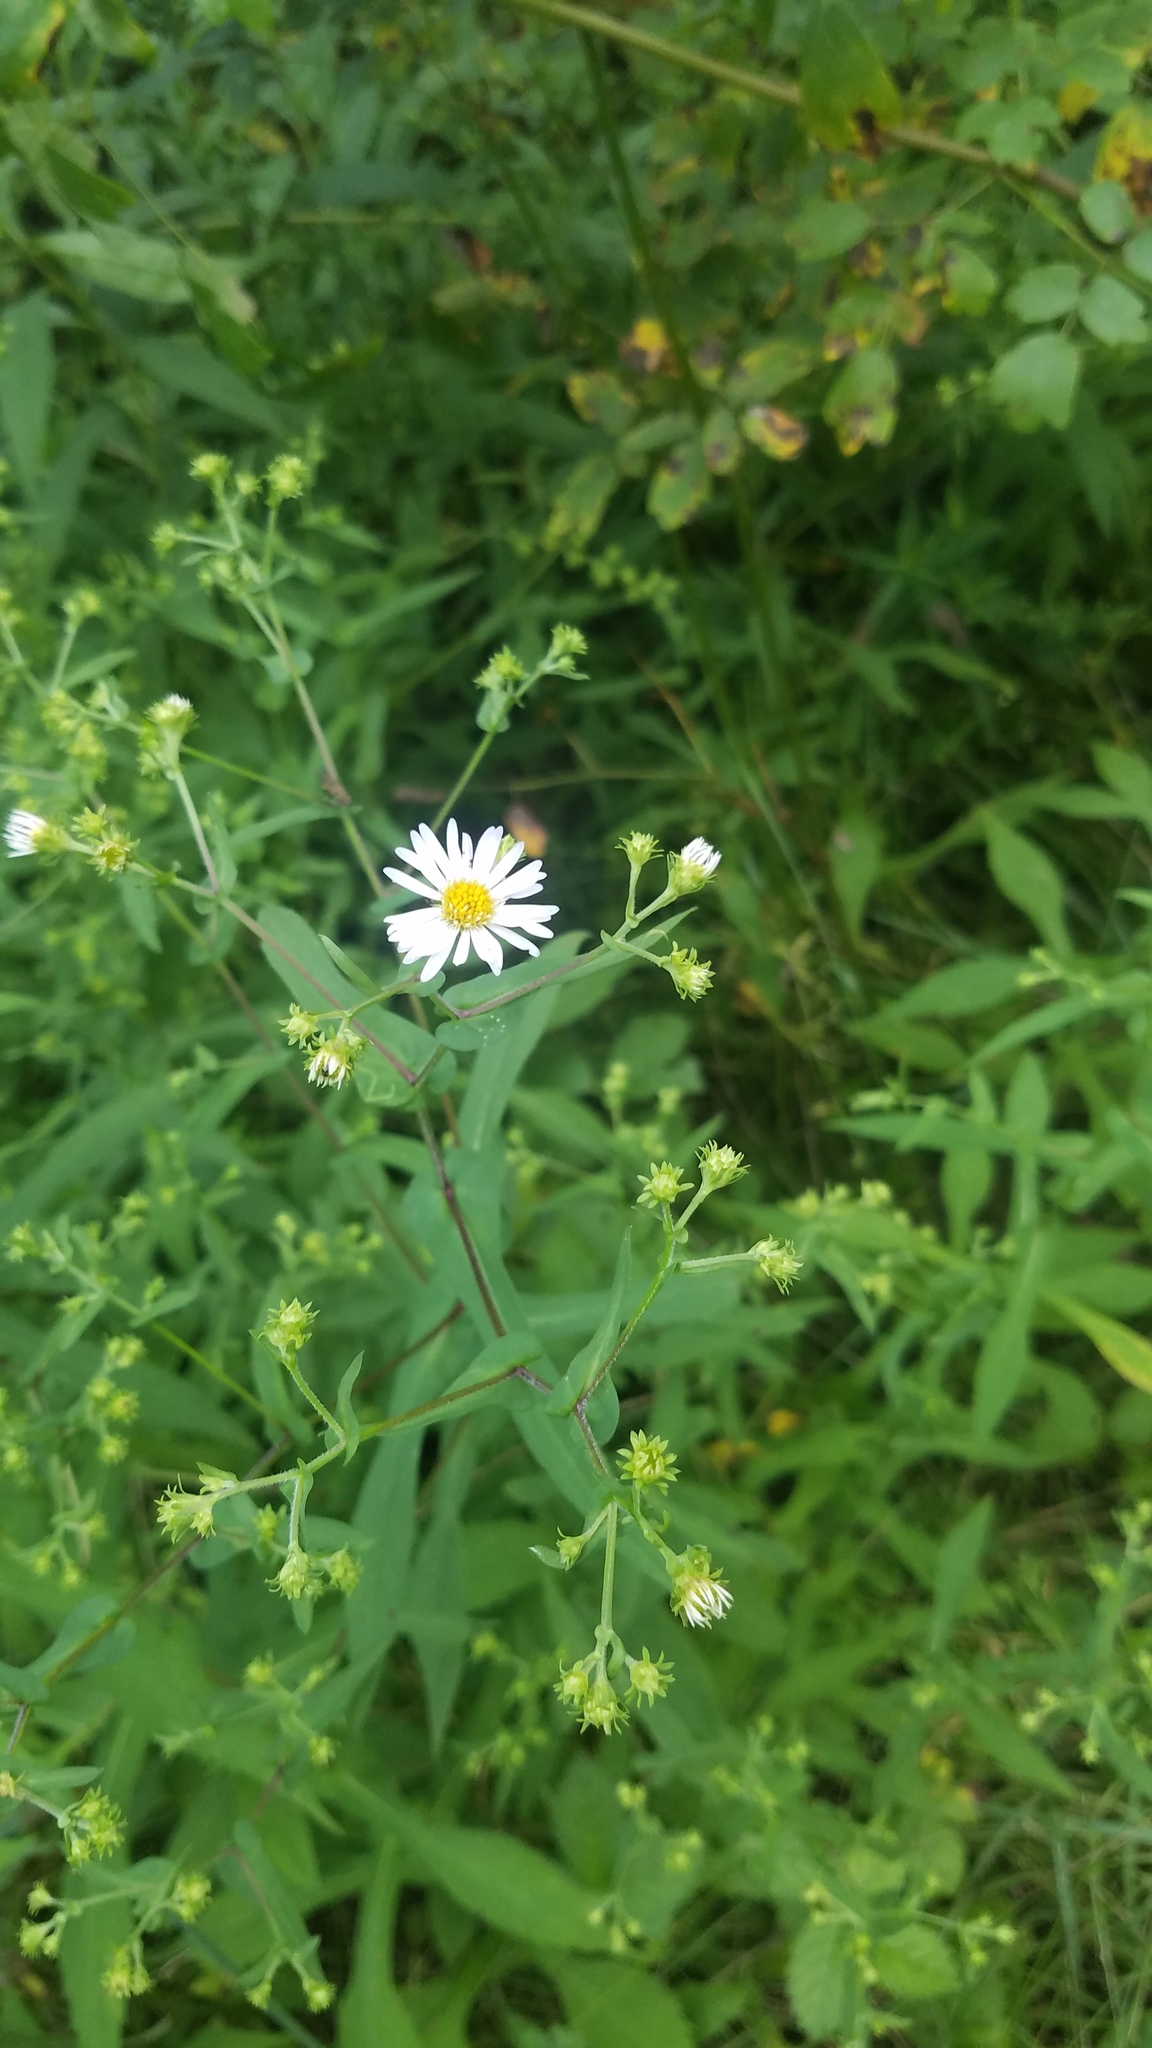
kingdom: Plantae
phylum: Tracheophyta
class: Magnoliopsida
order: Asterales
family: Asteraceae
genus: Symphyotrichum
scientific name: Symphyotrichum prenanthoides
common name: Crooked-stem aster
